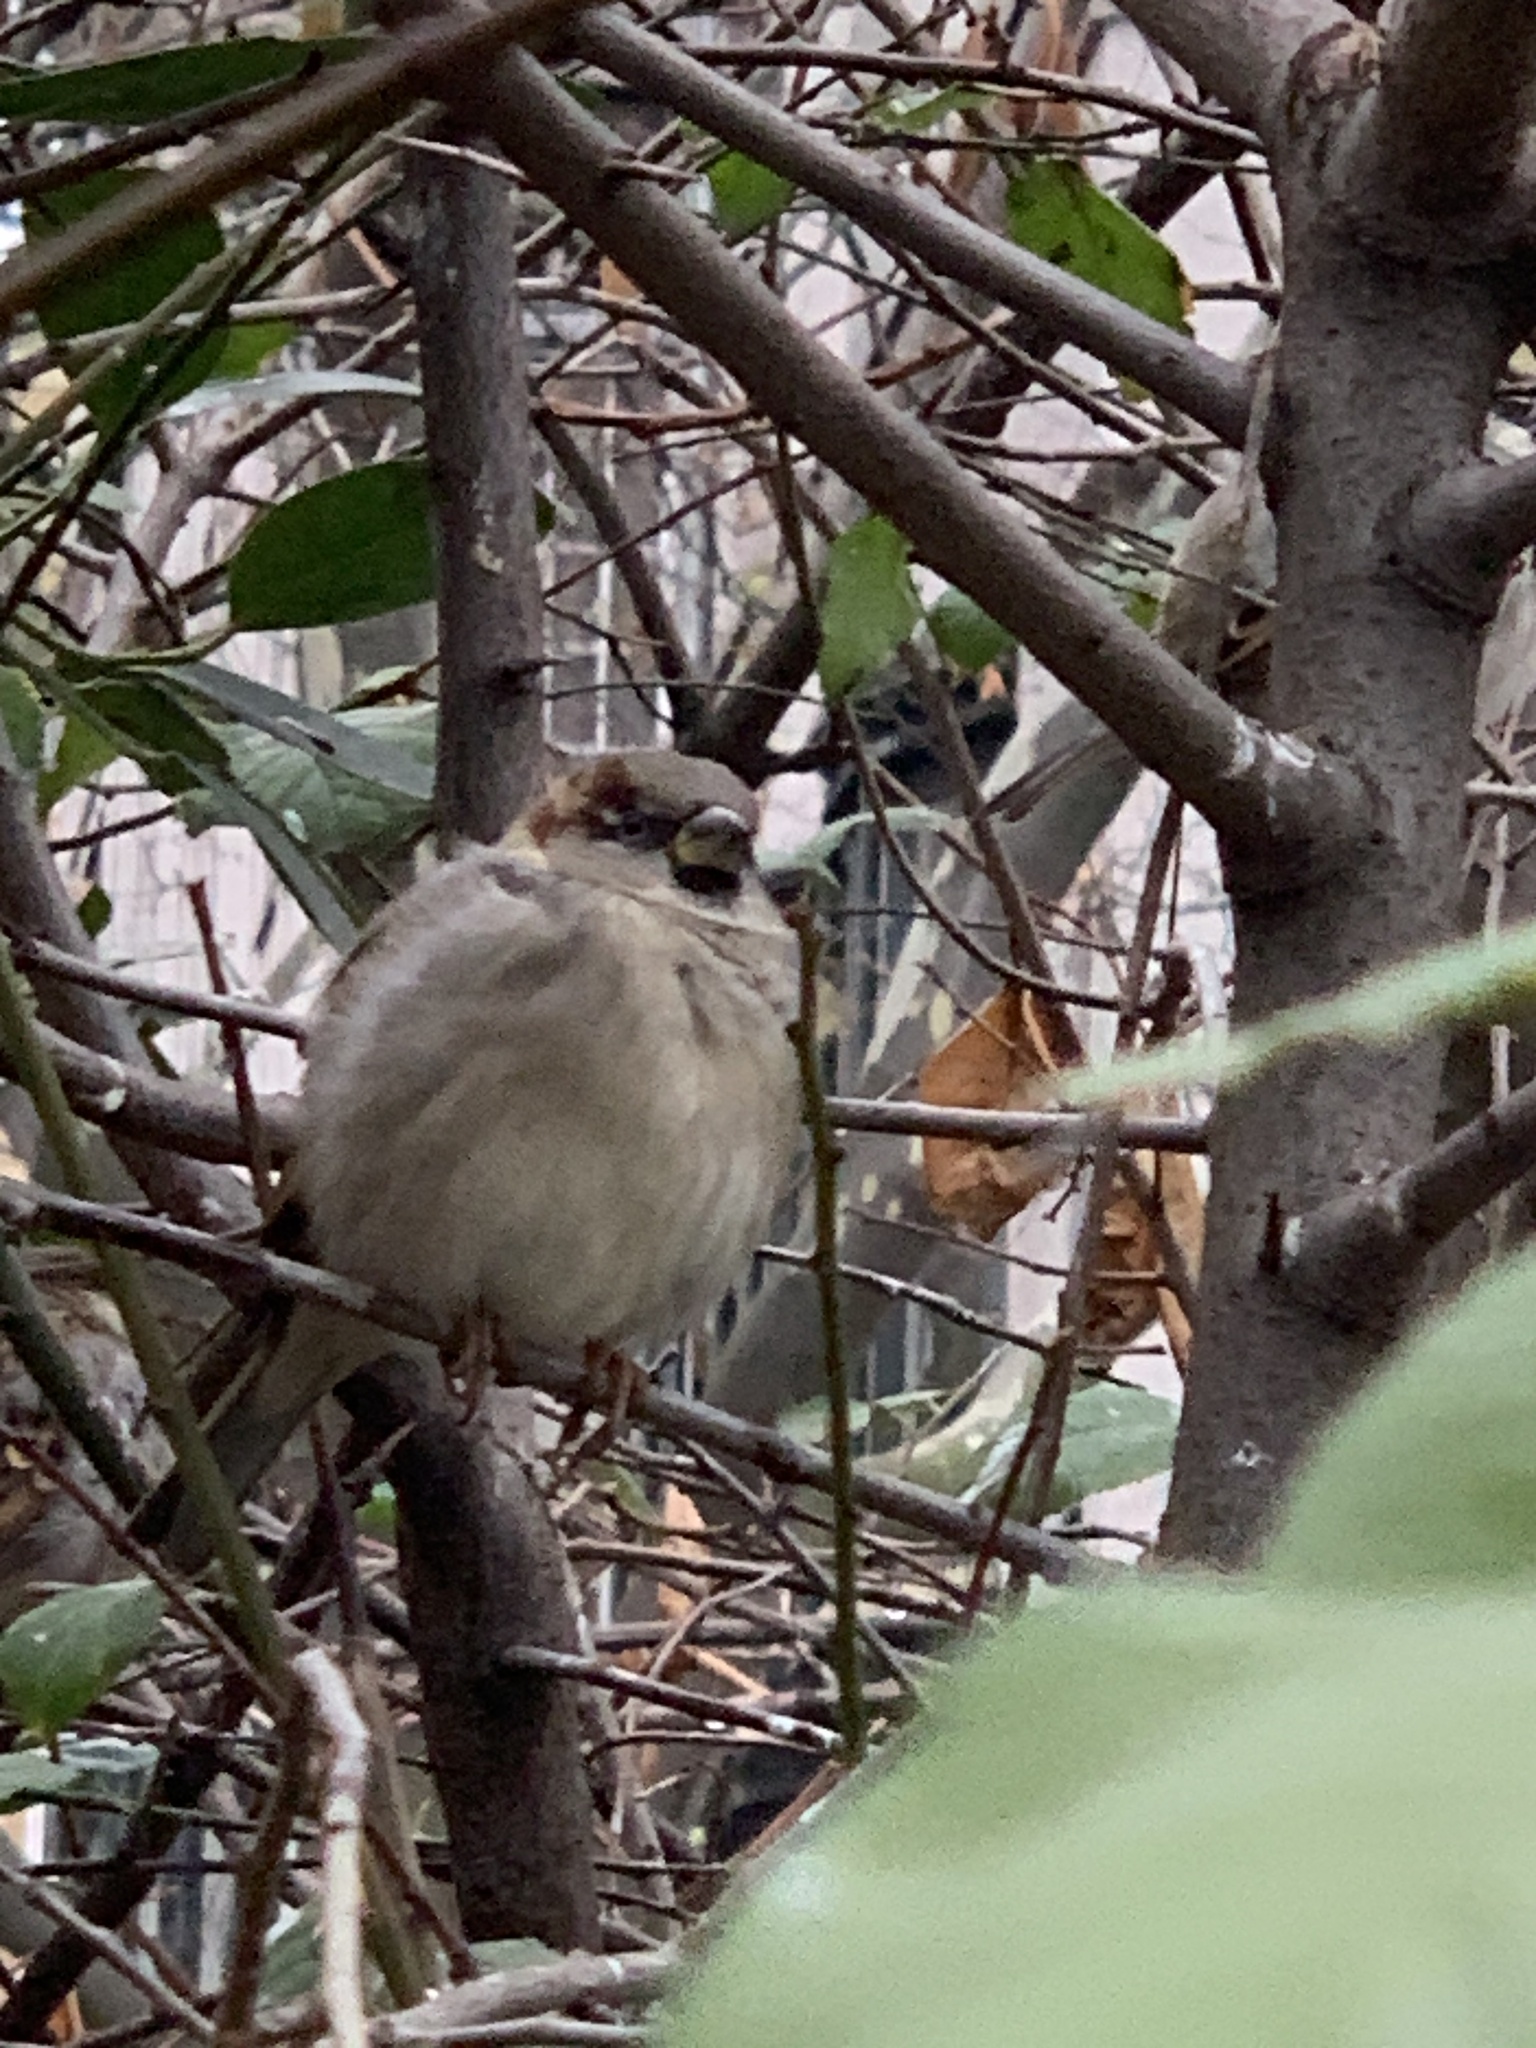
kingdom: Animalia
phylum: Chordata
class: Aves
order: Passeriformes
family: Passeridae
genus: Passer
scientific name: Passer domesticus
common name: House sparrow
